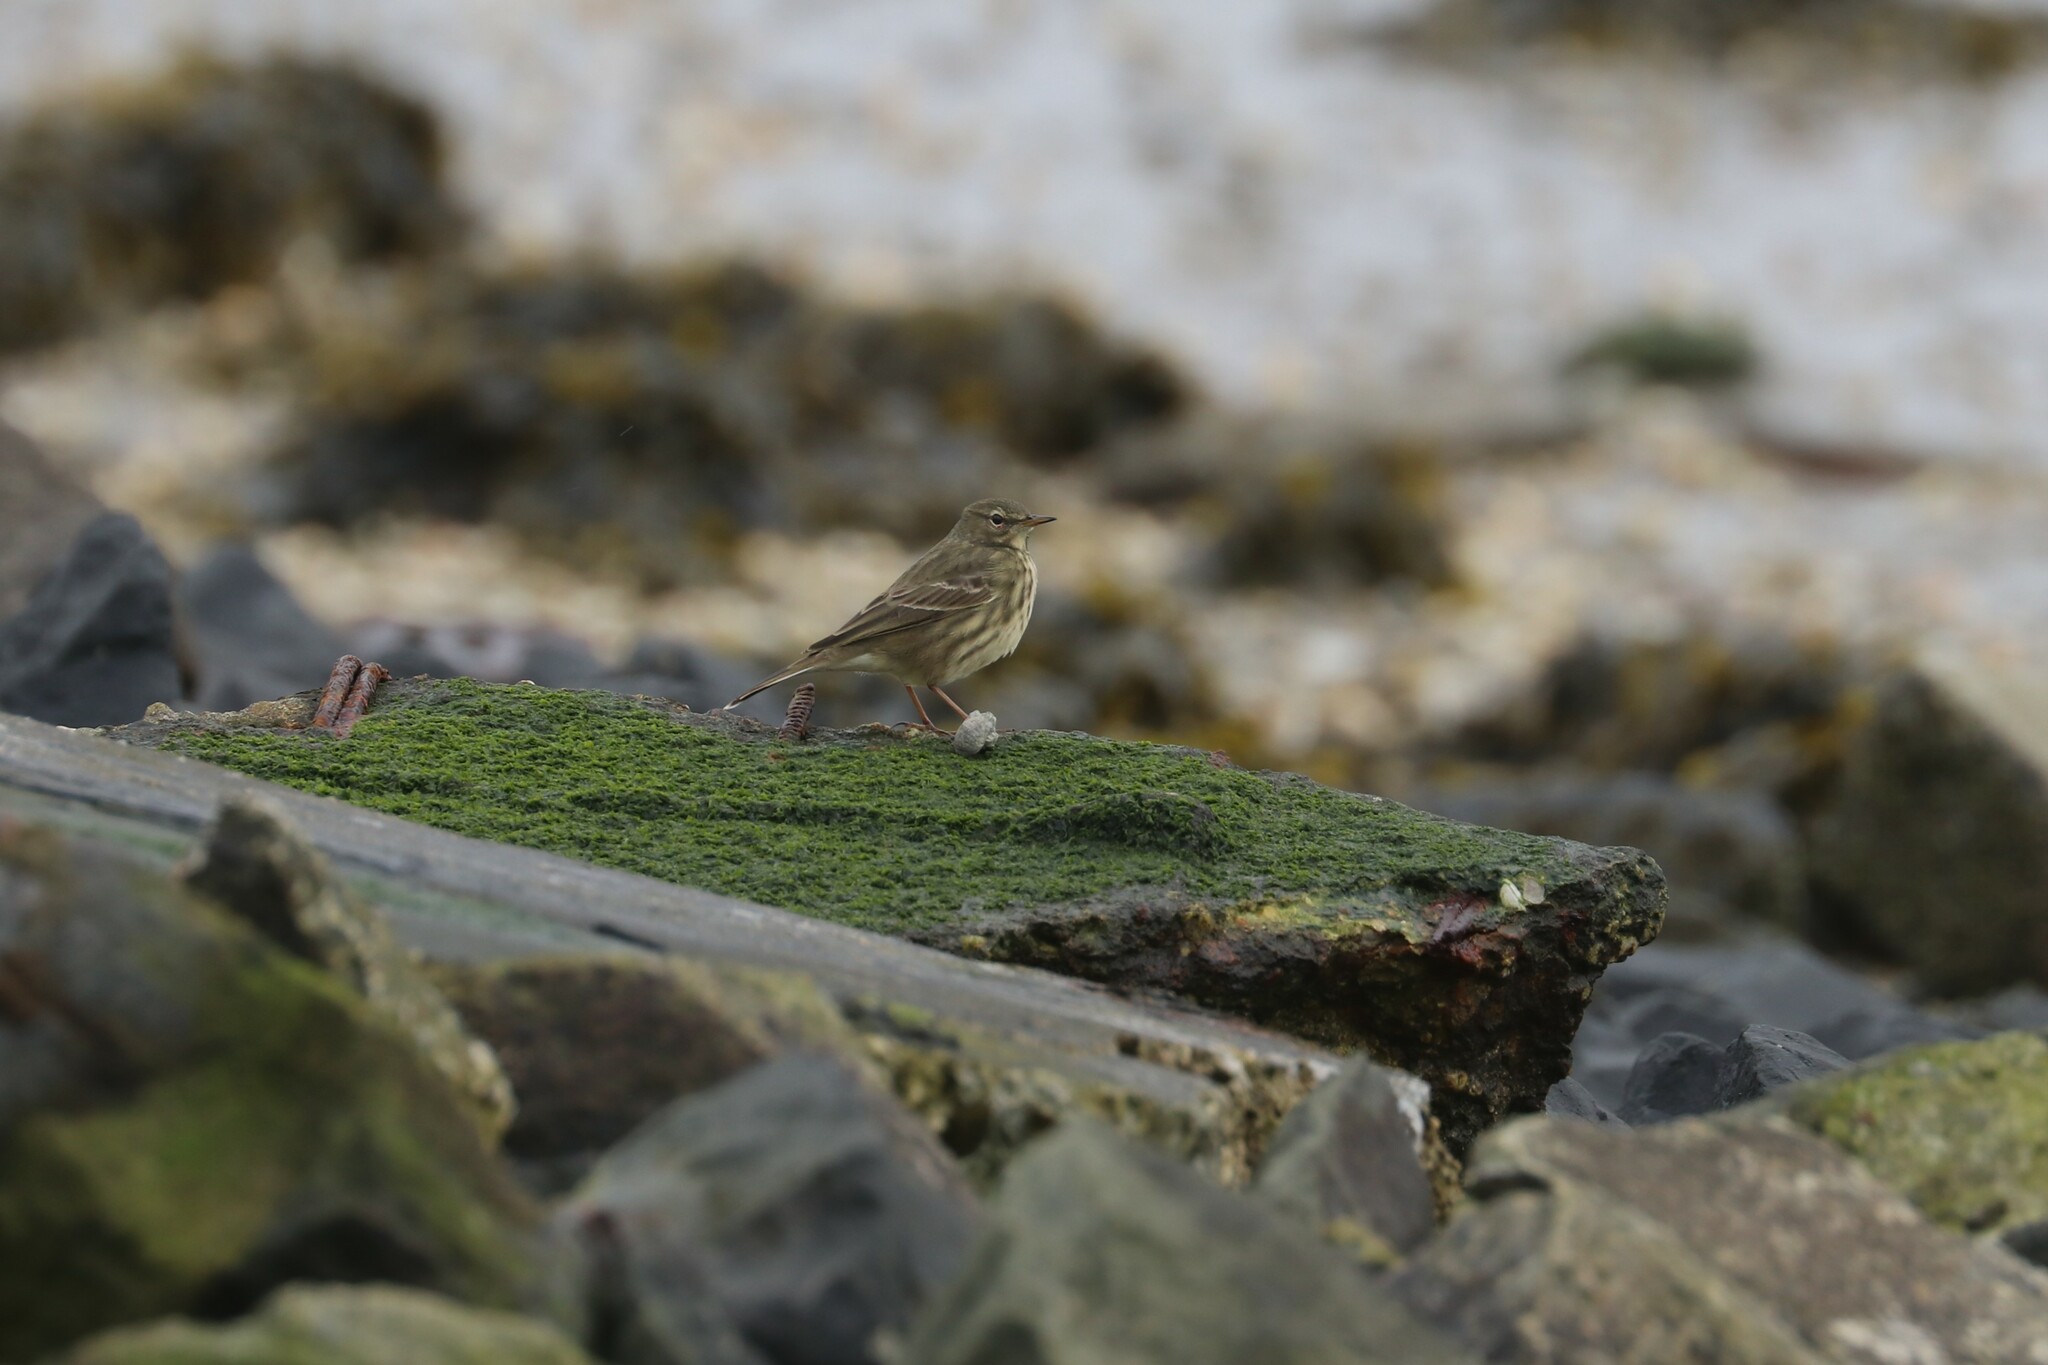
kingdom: Animalia
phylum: Chordata
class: Aves
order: Passeriformes
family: Motacillidae
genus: Anthus
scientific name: Anthus petrosus
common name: Eurasian rock pipit
